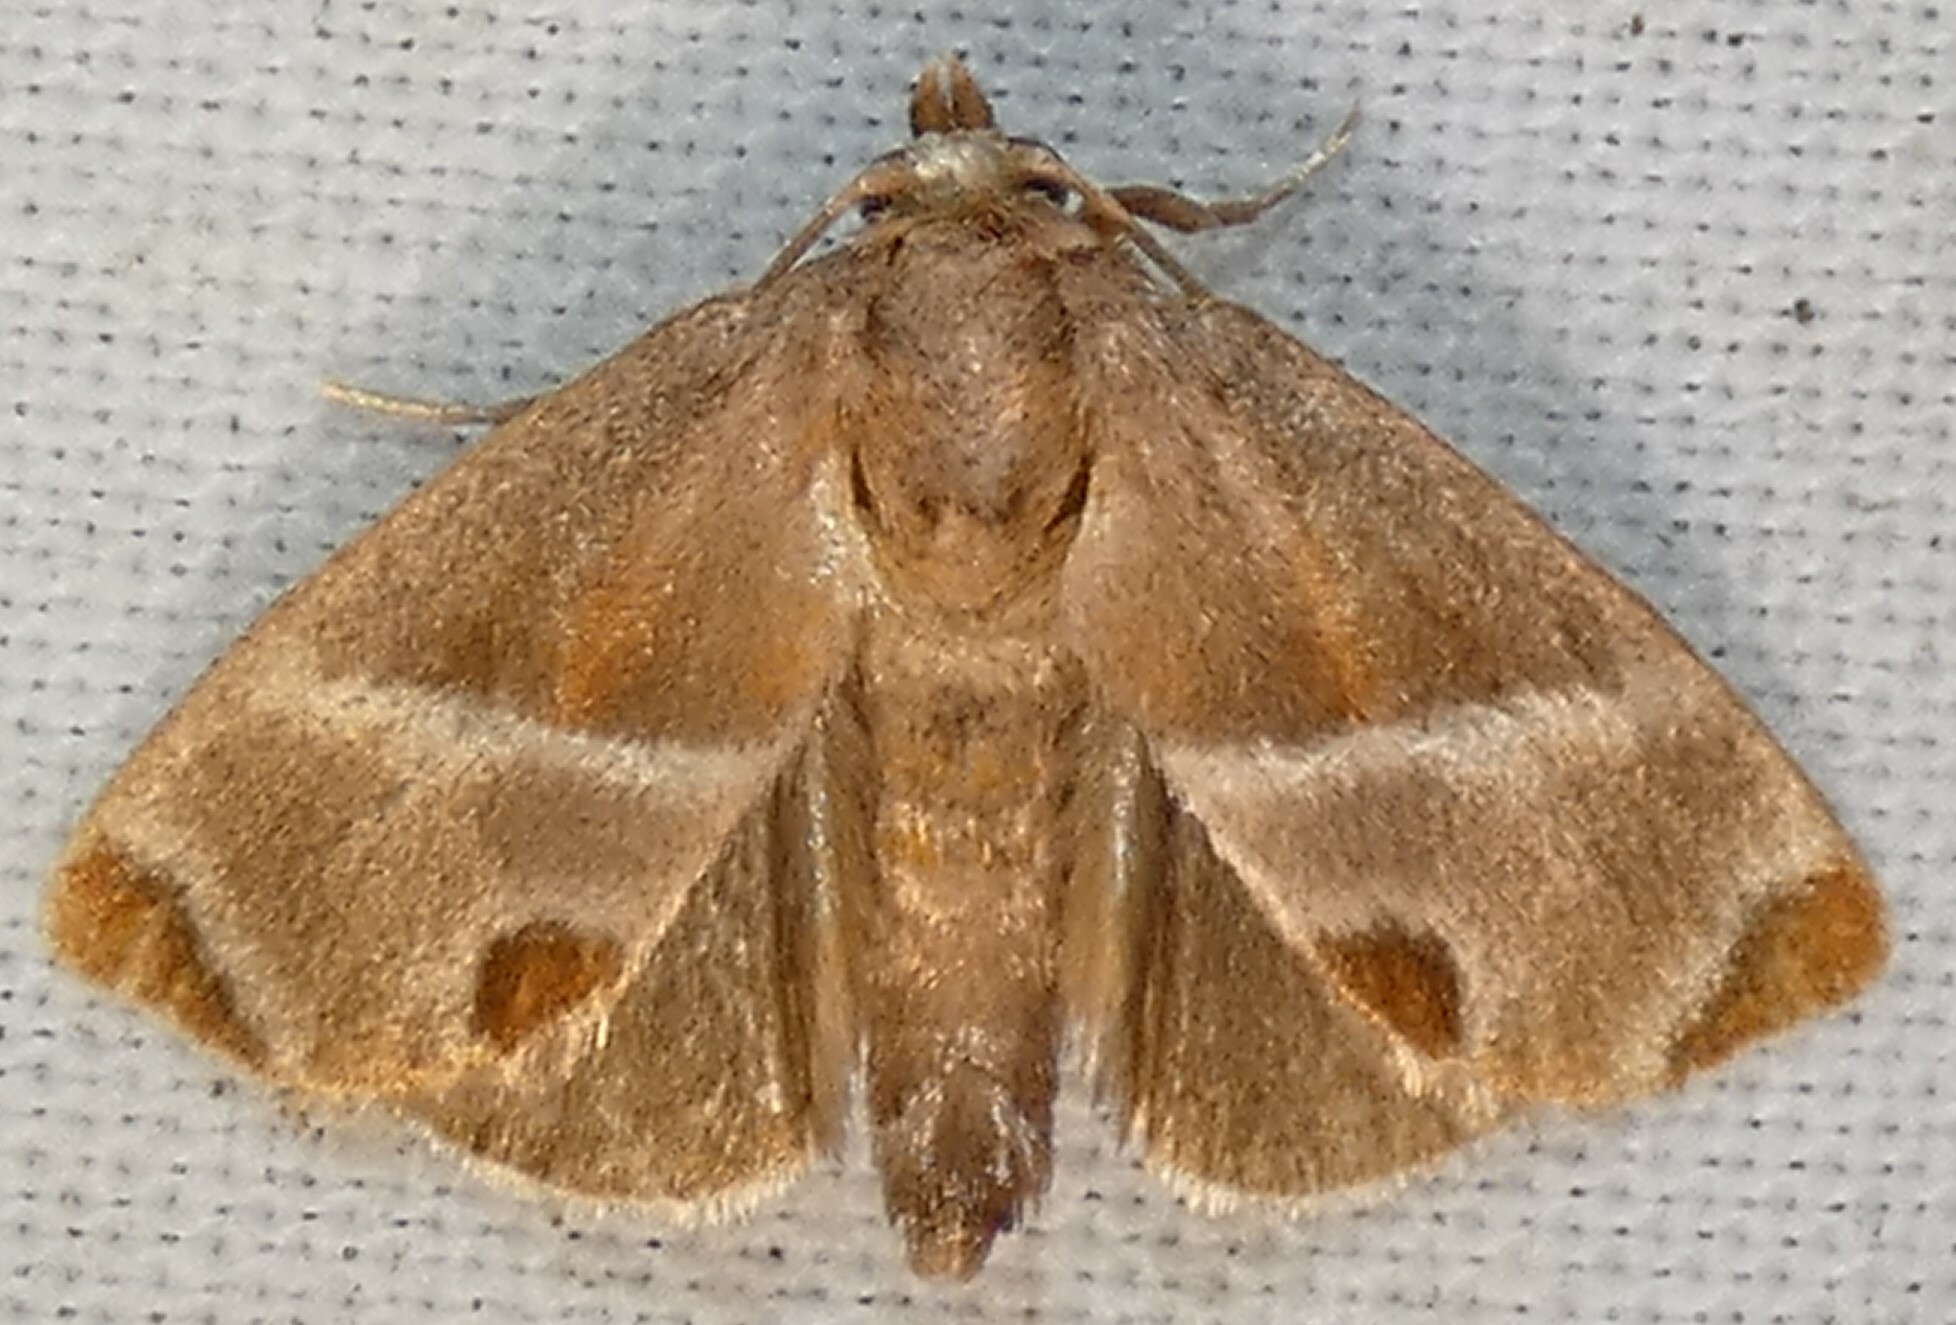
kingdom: Animalia
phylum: Arthropoda
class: Insecta
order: Lepidoptera
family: Limacodidae
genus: Apoda
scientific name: Apoda biguttata
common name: Shagreened slug moth
